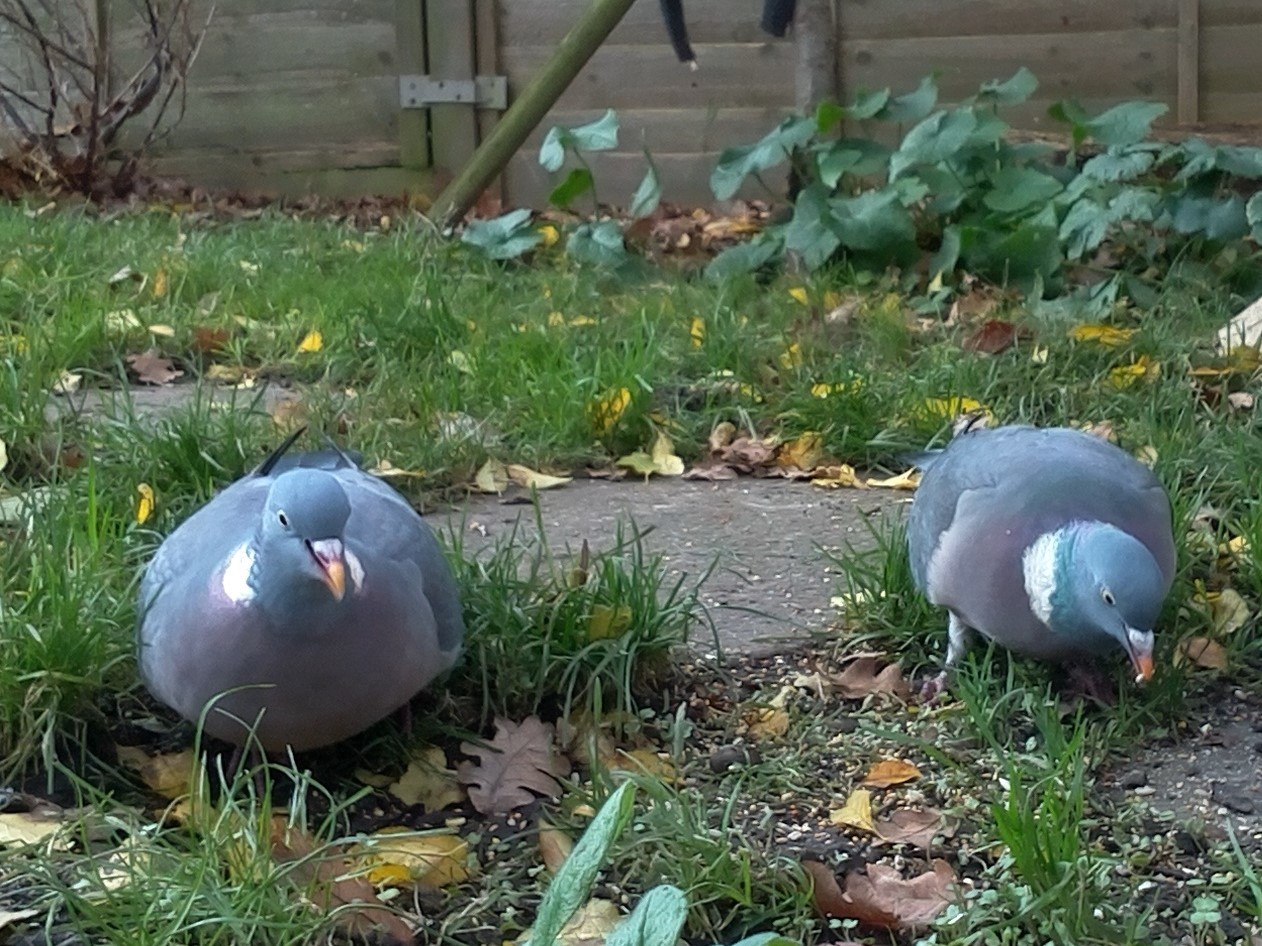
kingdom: Animalia
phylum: Chordata
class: Aves
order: Columbiformes
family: Columbidae
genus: Columba
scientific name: Columba palumbus
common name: Common wood pigeon
